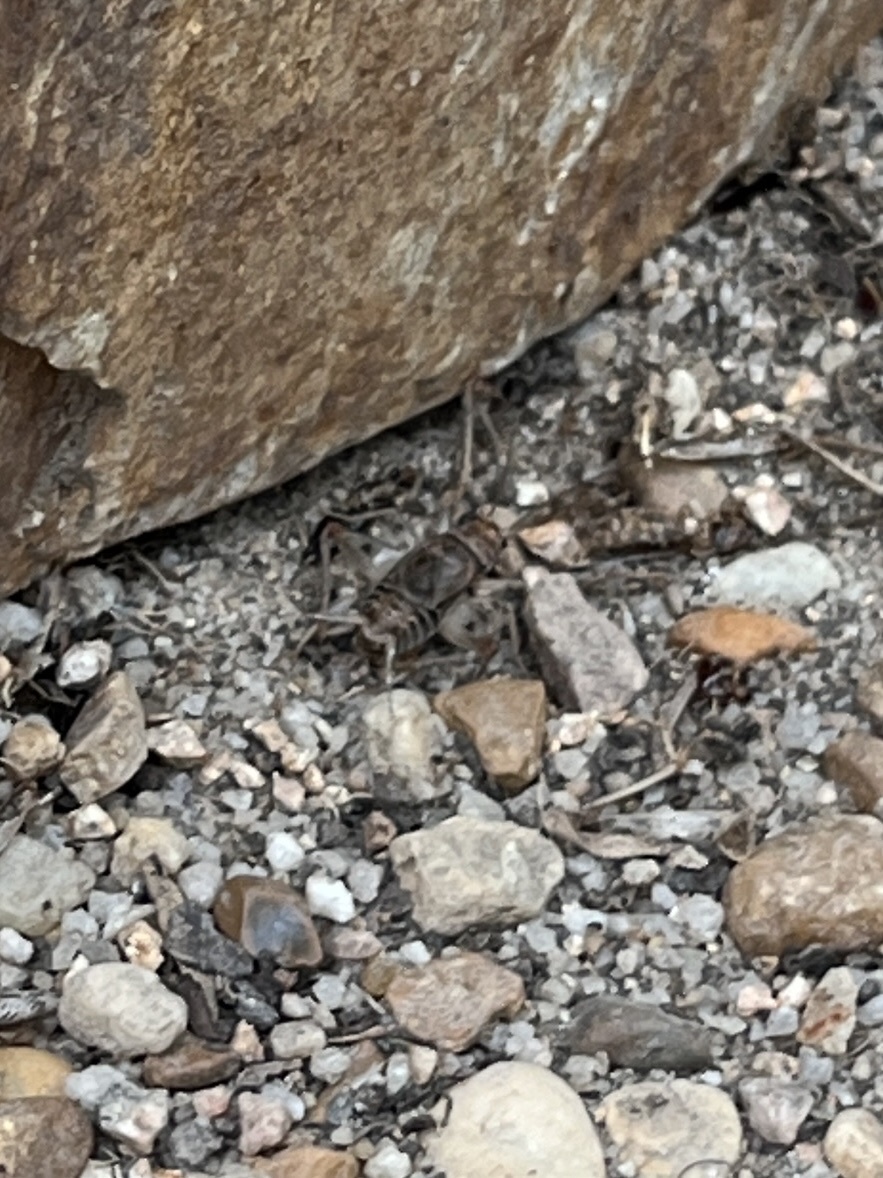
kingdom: Animalia
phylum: Arthropoda
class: Insecta
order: Orthoptera
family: Gryllidae
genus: Gryllodes
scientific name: Gryllodes sigillatus
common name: Tropical house cricket
